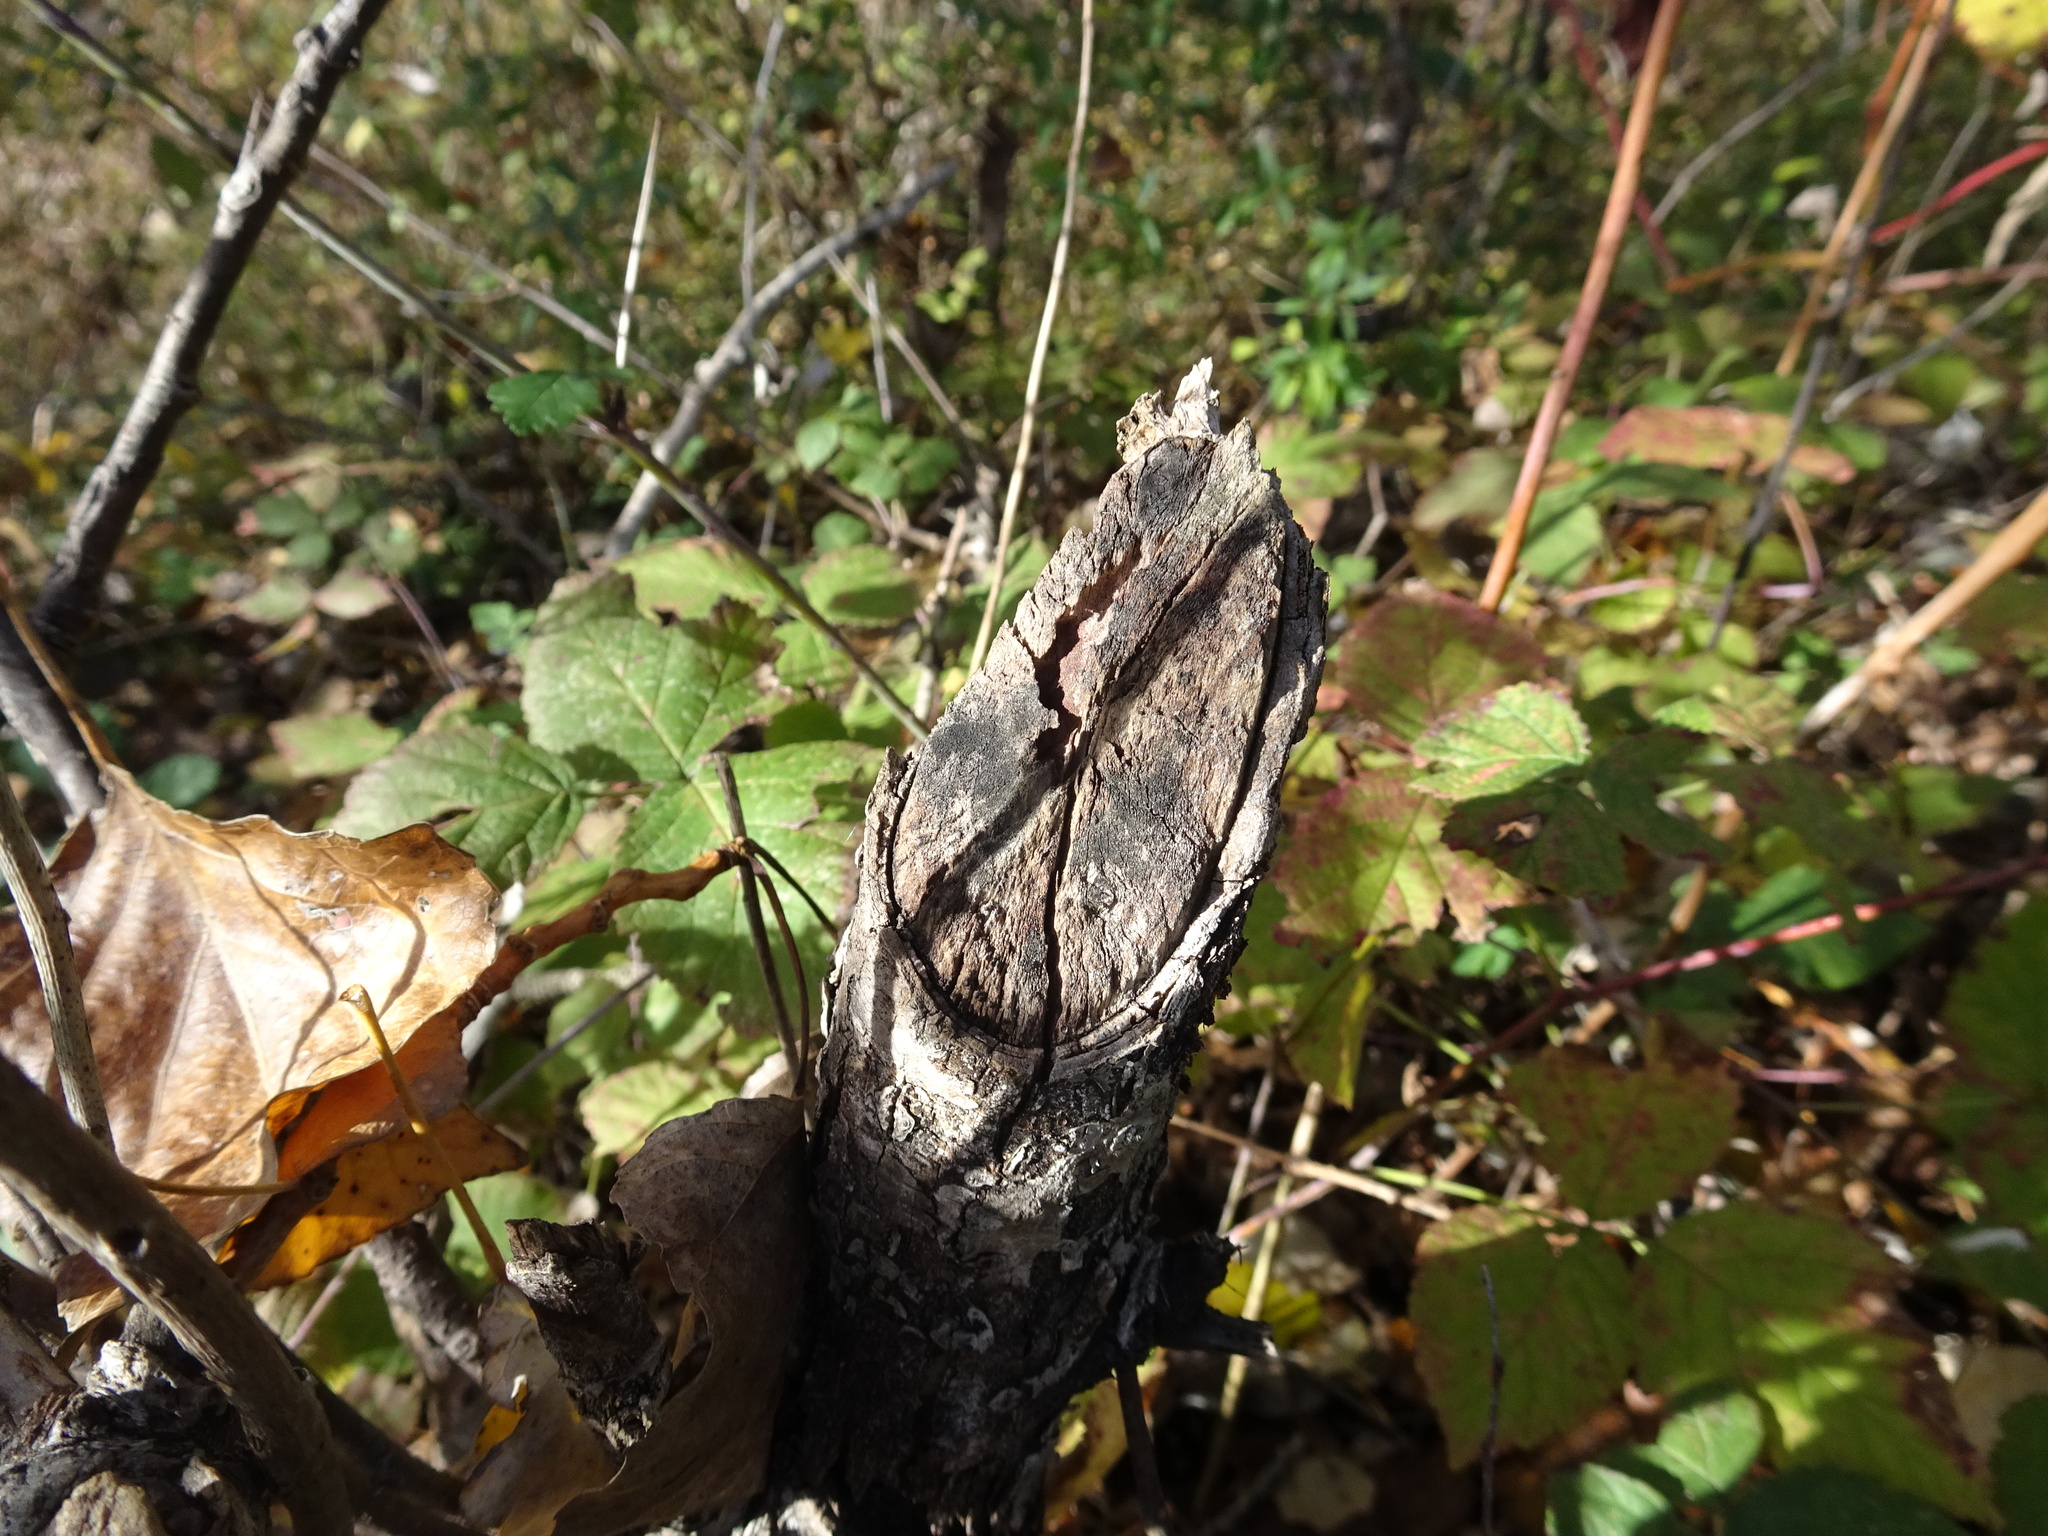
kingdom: Animalia
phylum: Chordata
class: Mammalia
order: Rodentia
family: Castoridae
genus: Castor
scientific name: Castor fiber
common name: Eurasian beaver
